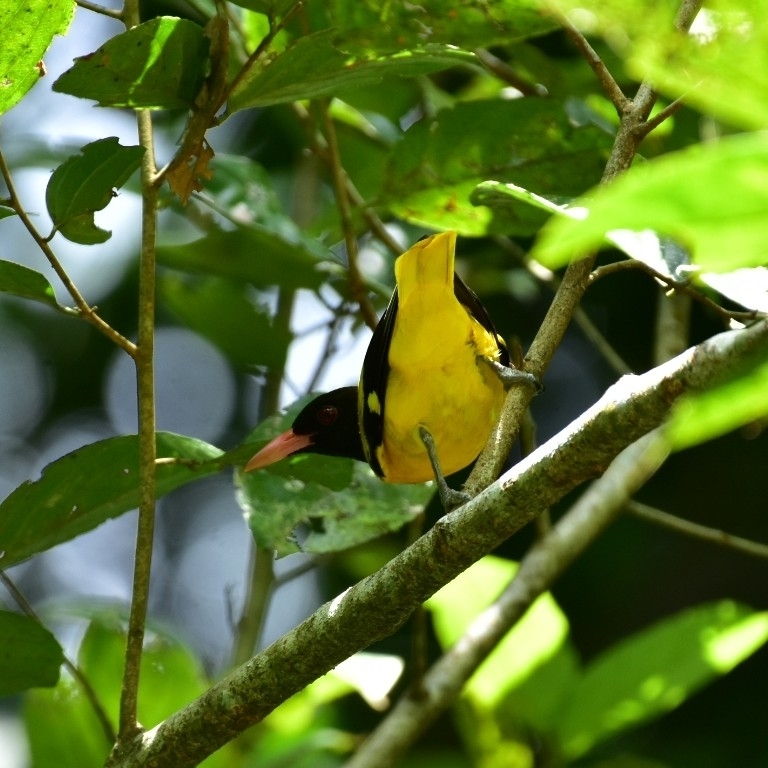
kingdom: Animalia
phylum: Chordata
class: Aves
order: Passeriformes
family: Oriolidae
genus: Oriolus
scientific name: Oriolus xanthornus
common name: Black-hooded oriole
